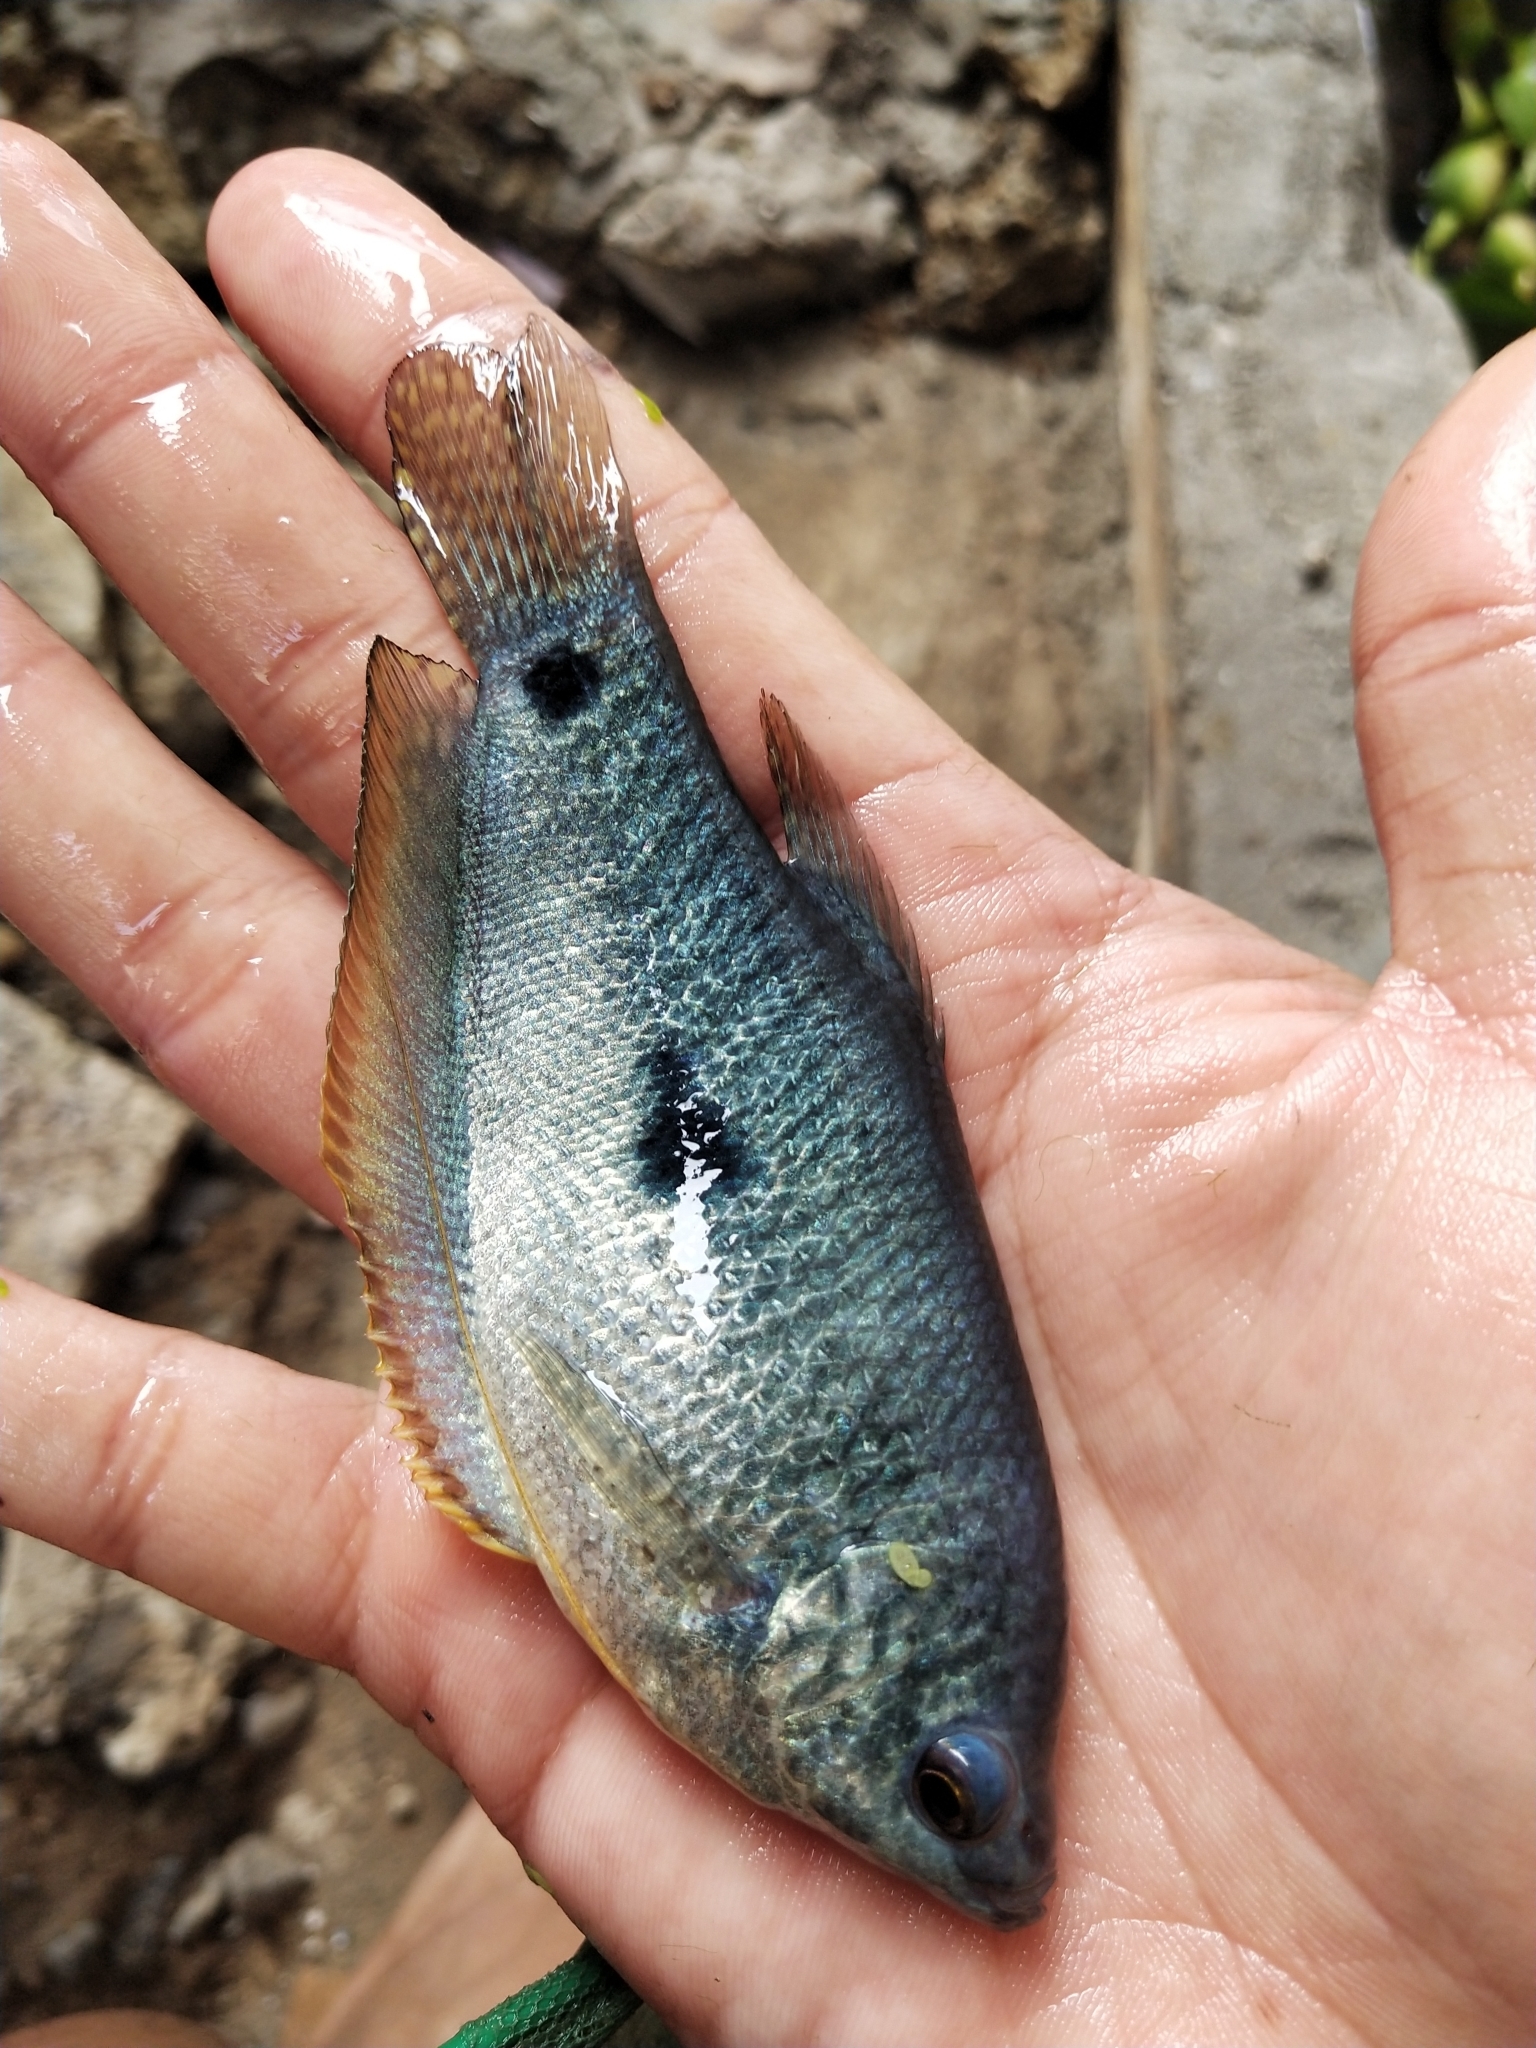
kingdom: Animalia
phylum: Chordata
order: Perciformes
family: Osphronemidae
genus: Trichopodus
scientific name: Trichopodus trichopterus
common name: Blue gourami
